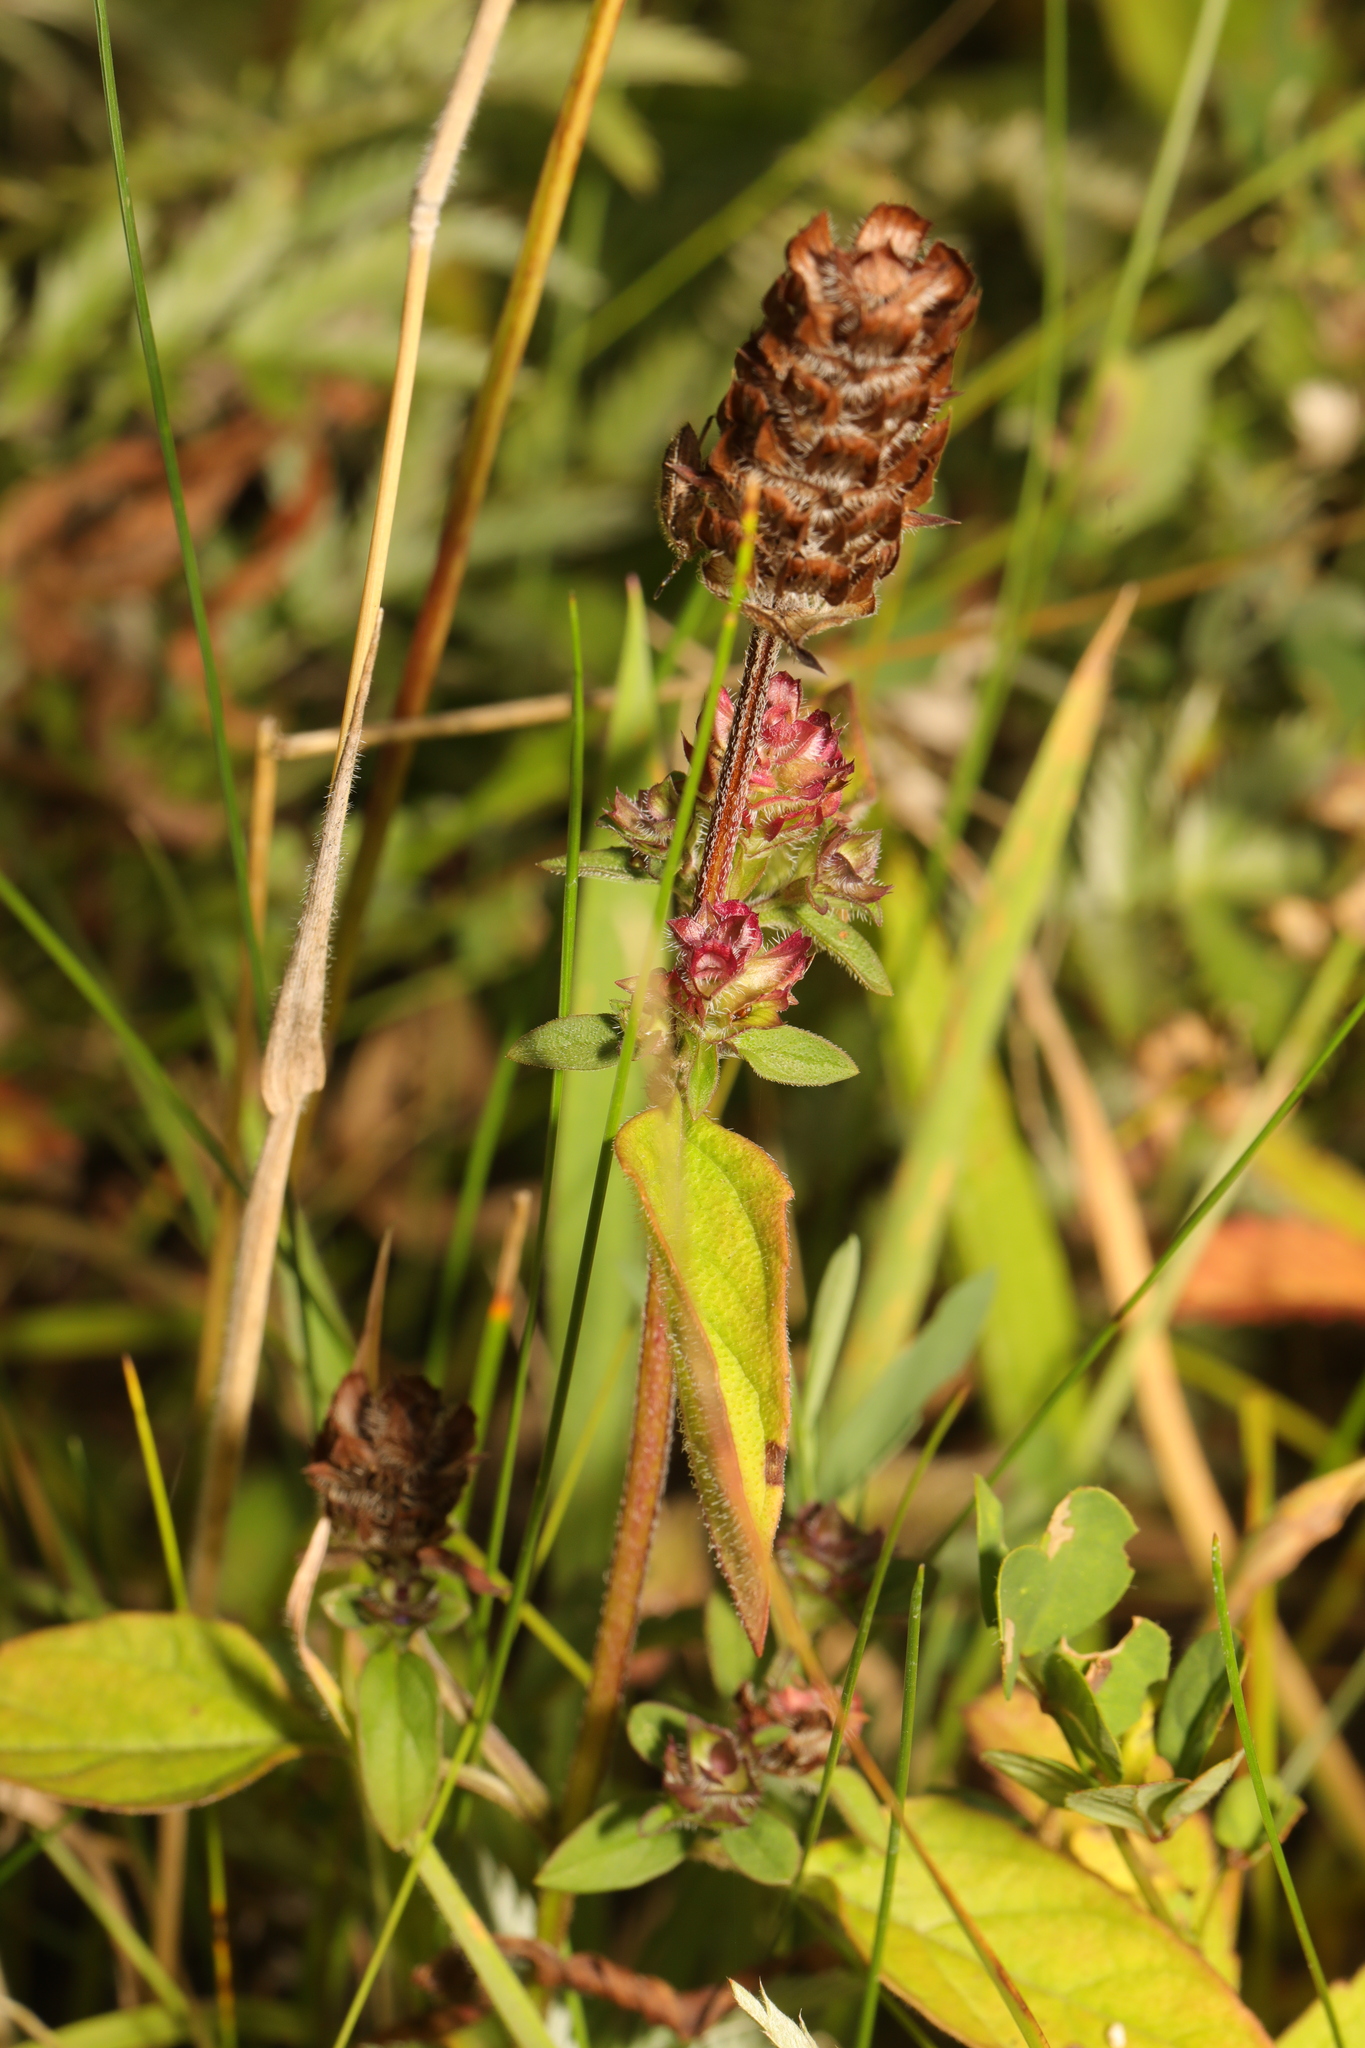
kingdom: Plantae
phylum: Tracheophyta
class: Magnoliopsida
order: Lamiales
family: Lamiaceae
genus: Prunella
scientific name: Prunella vulgaris
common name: Heal-all
